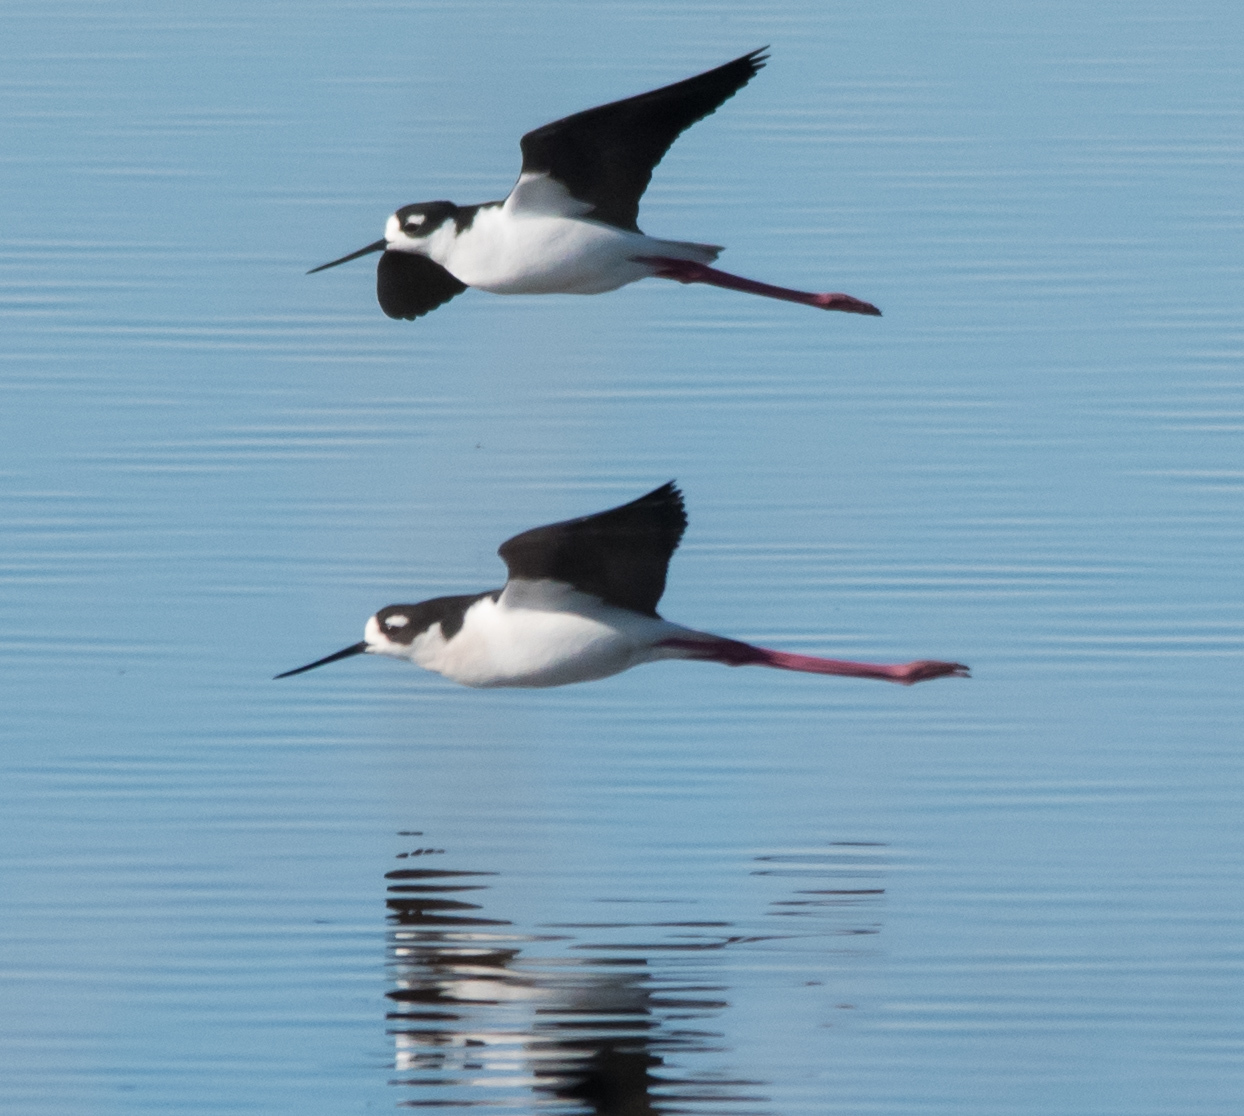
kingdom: Animalia
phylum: Chordata
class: Aves
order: Charadriiformes
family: Recurvirostridae
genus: Himantopus
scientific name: Himantopus mexicanus
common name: Black-necked stilt
